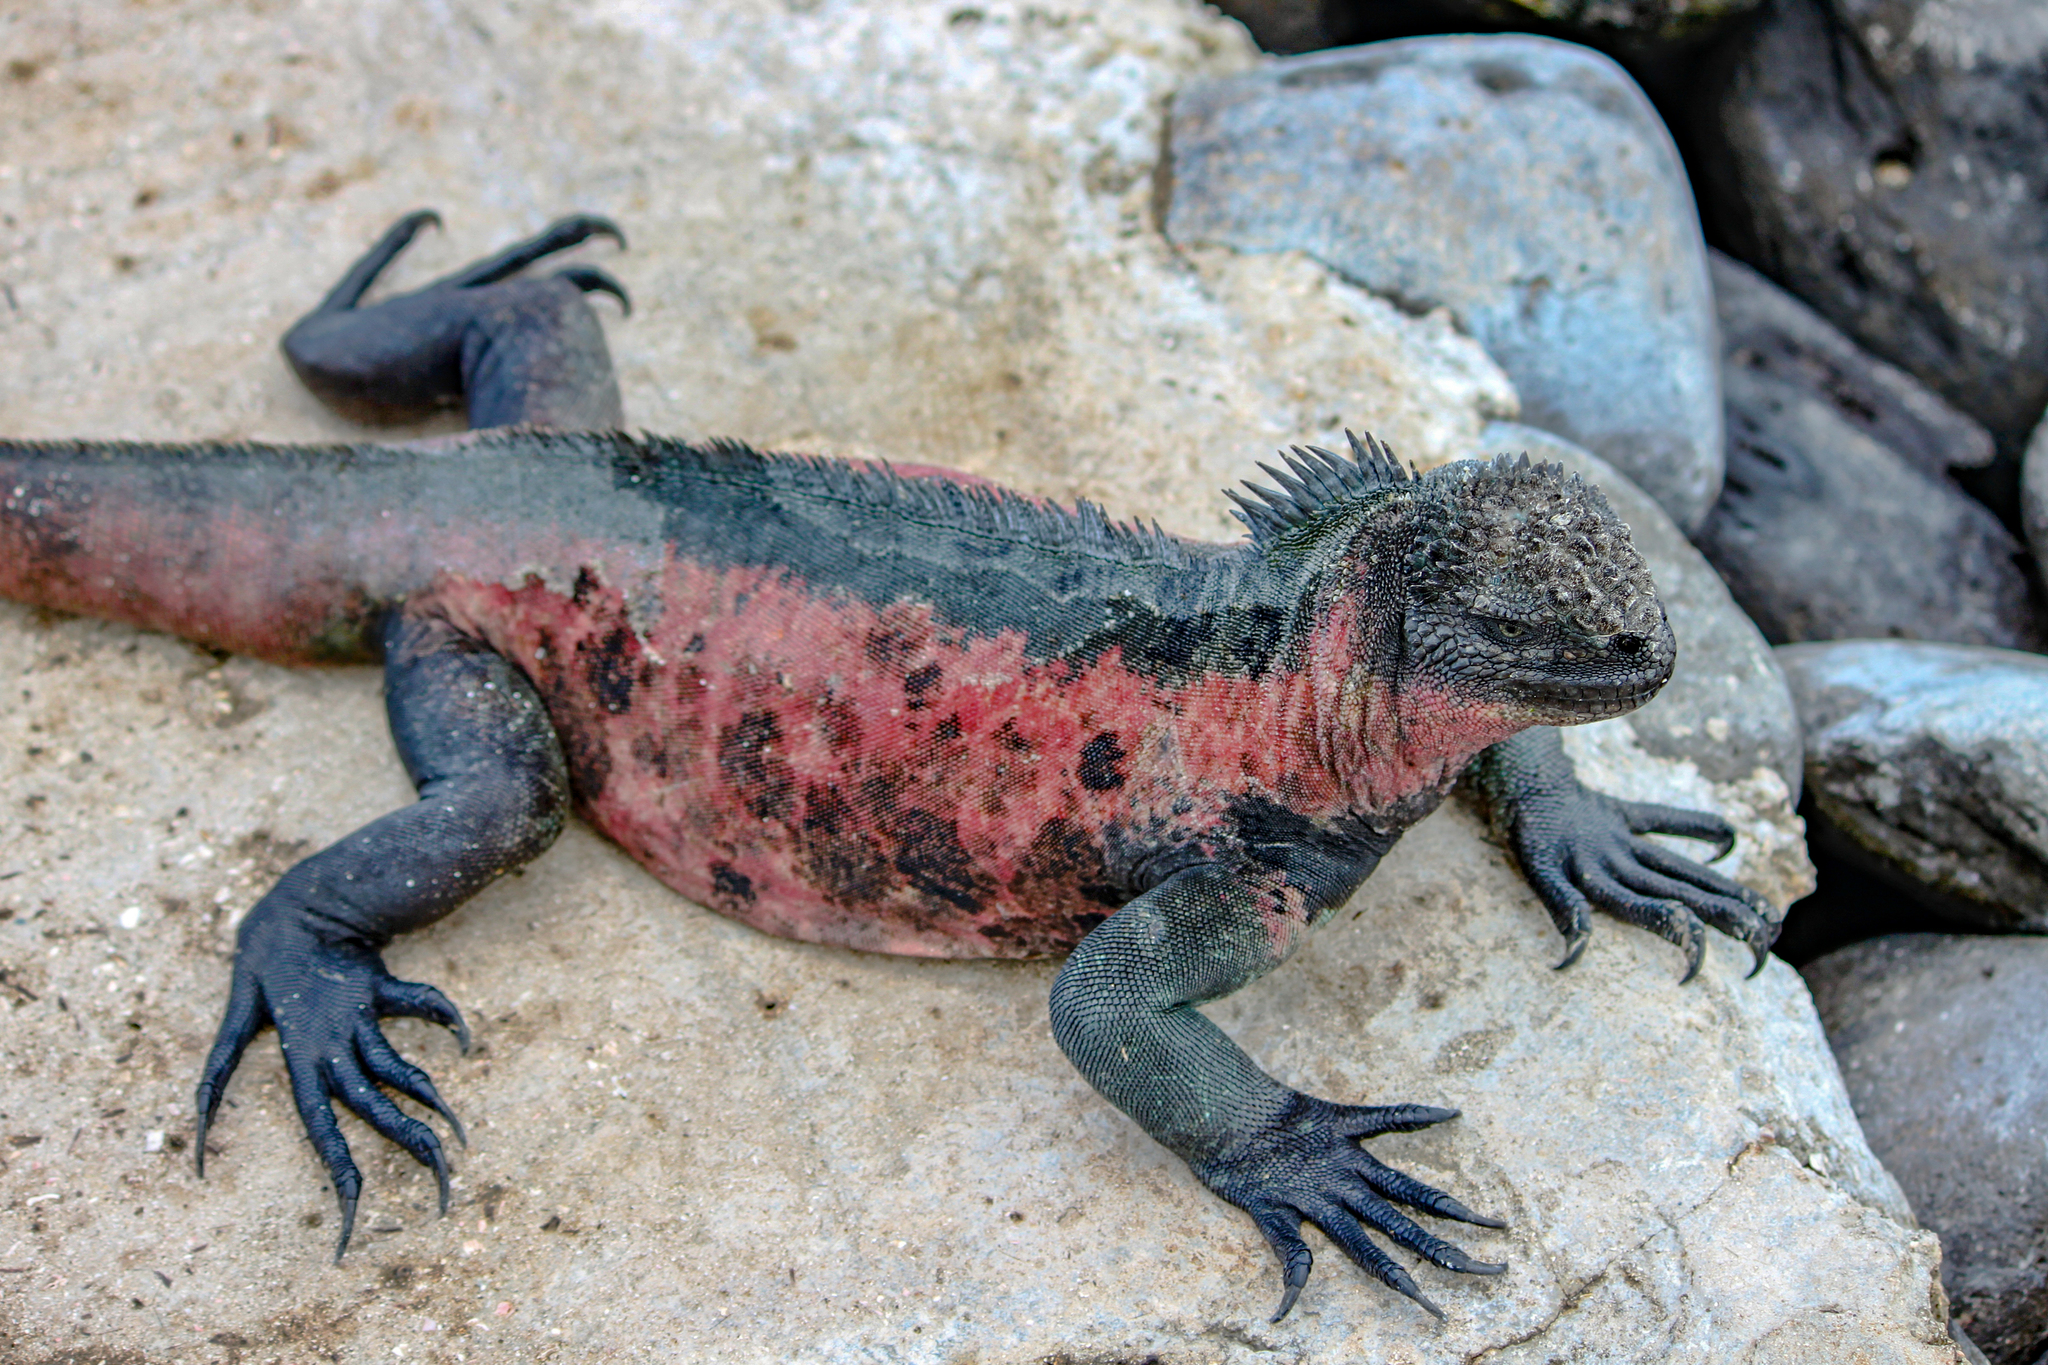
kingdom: Animalia
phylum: Chordata
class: Squamata
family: Iguanidae
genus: Amblyrhynchus
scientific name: Amblyrhynchus cristatus
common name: Marine iguana
